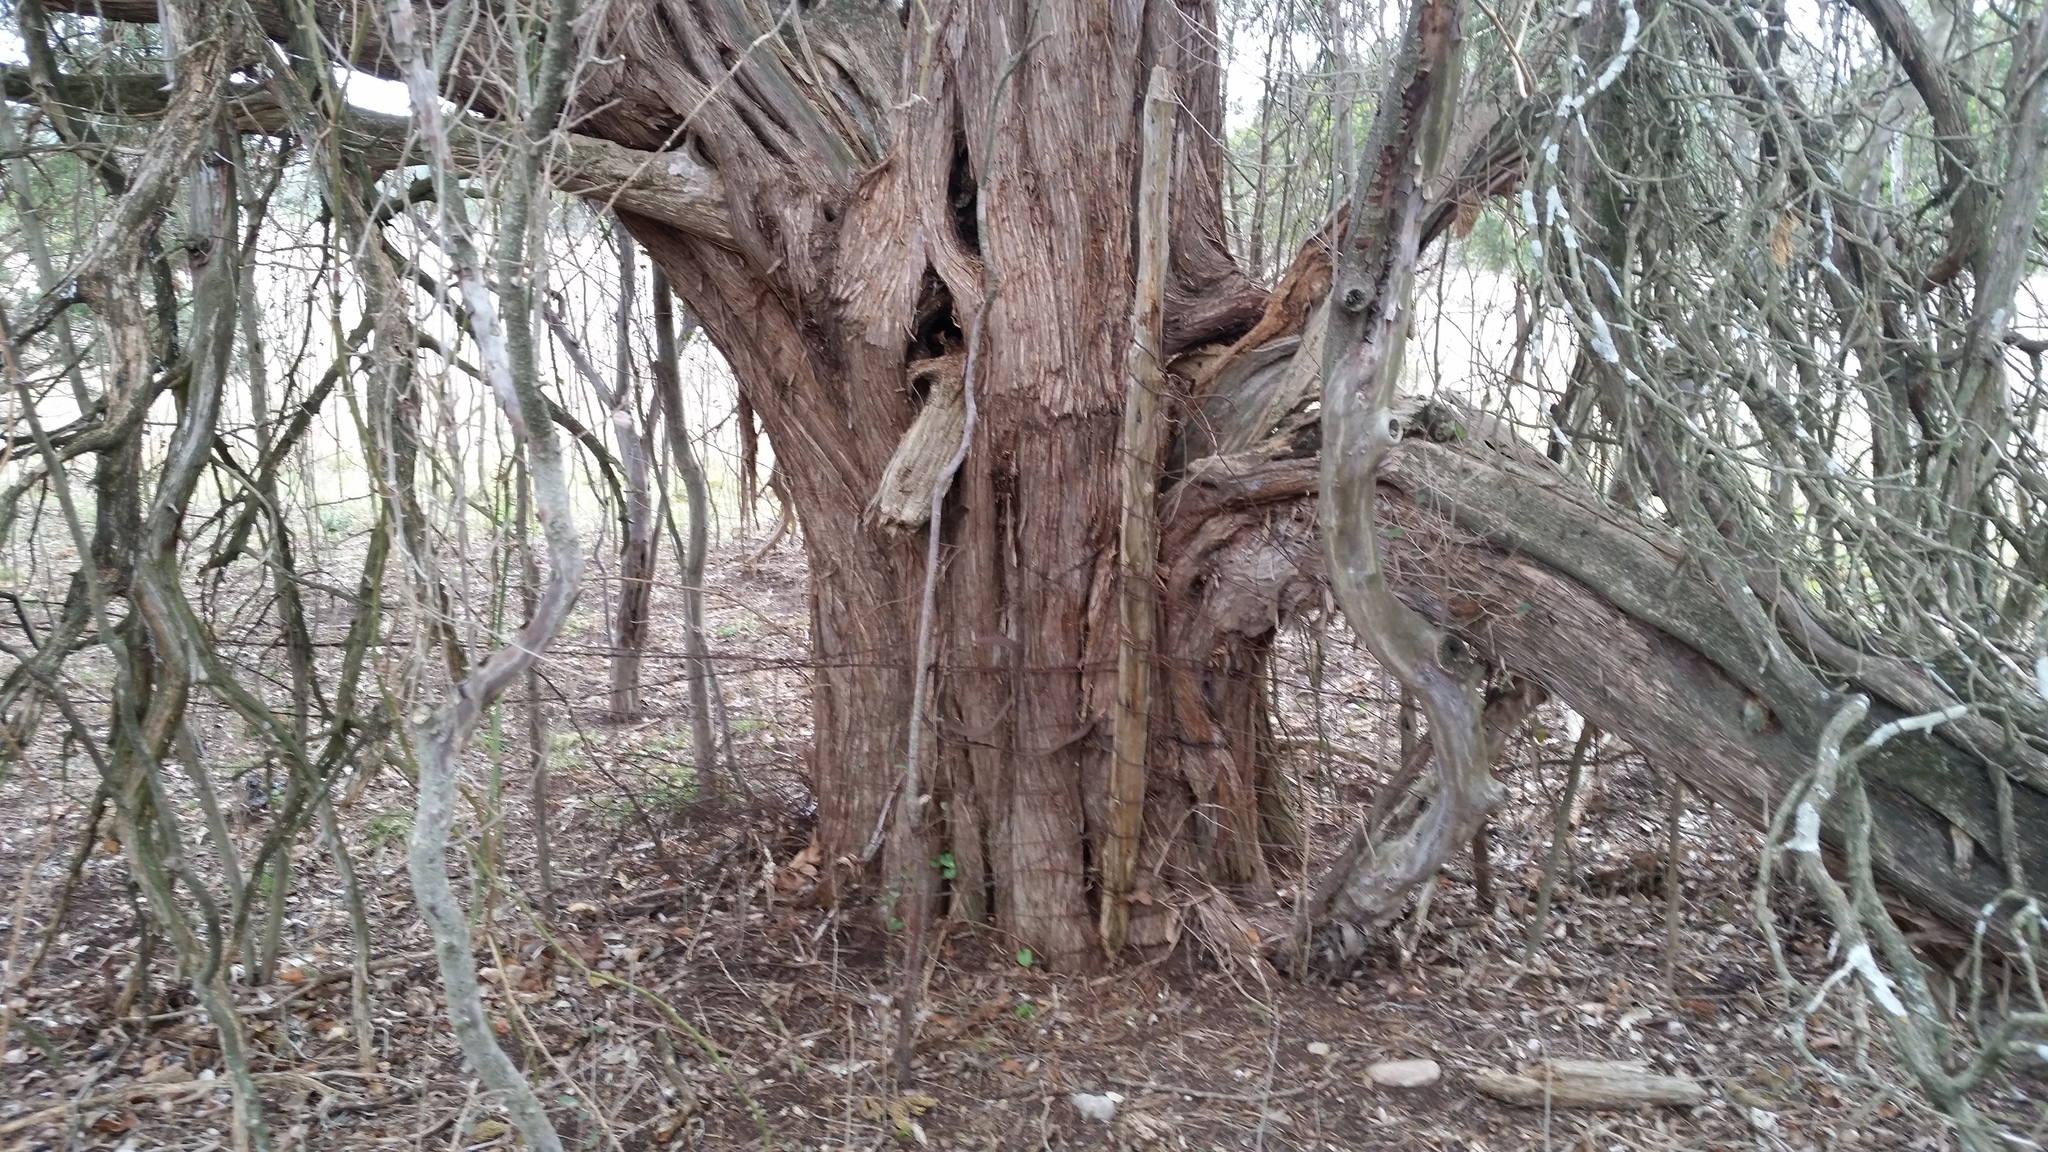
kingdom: Plantae
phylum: Tracheophyta
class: Pinopsida
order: Pinales
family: Cupressaceae
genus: Juniperus
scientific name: Juniperus ashei
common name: Mexican juniper
